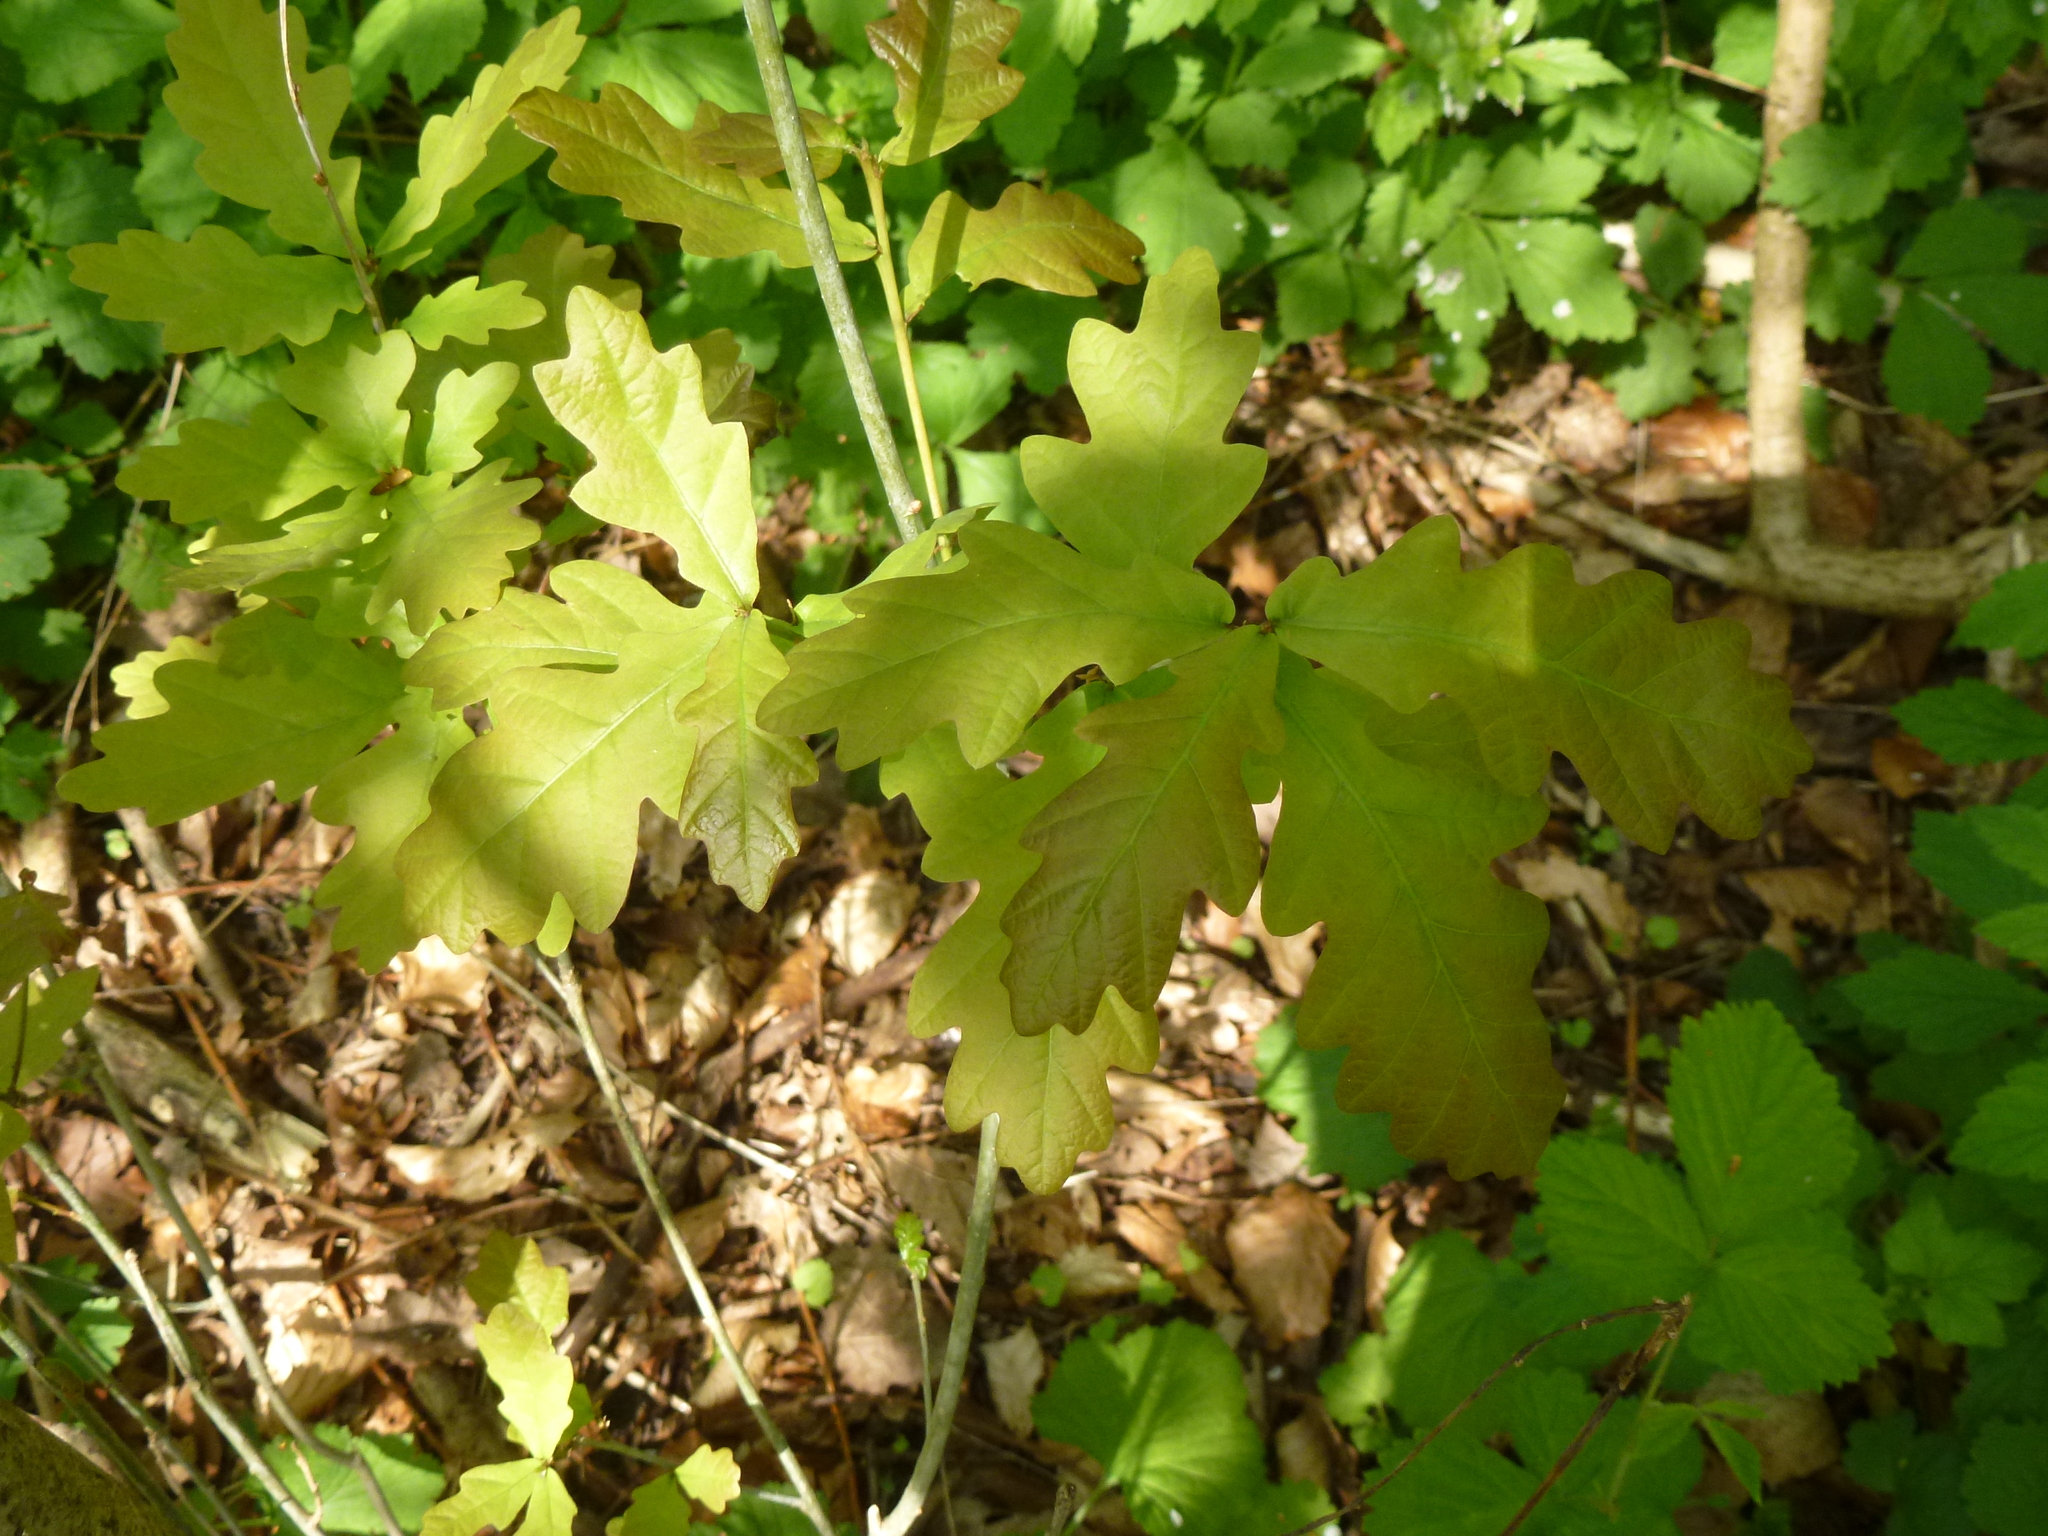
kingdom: Plantae
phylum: Tracheophyta
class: Magnoliopsida
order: Fagales
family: Fagaceae
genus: Quercus
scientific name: Quercus robur
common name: Pedunculate oak
